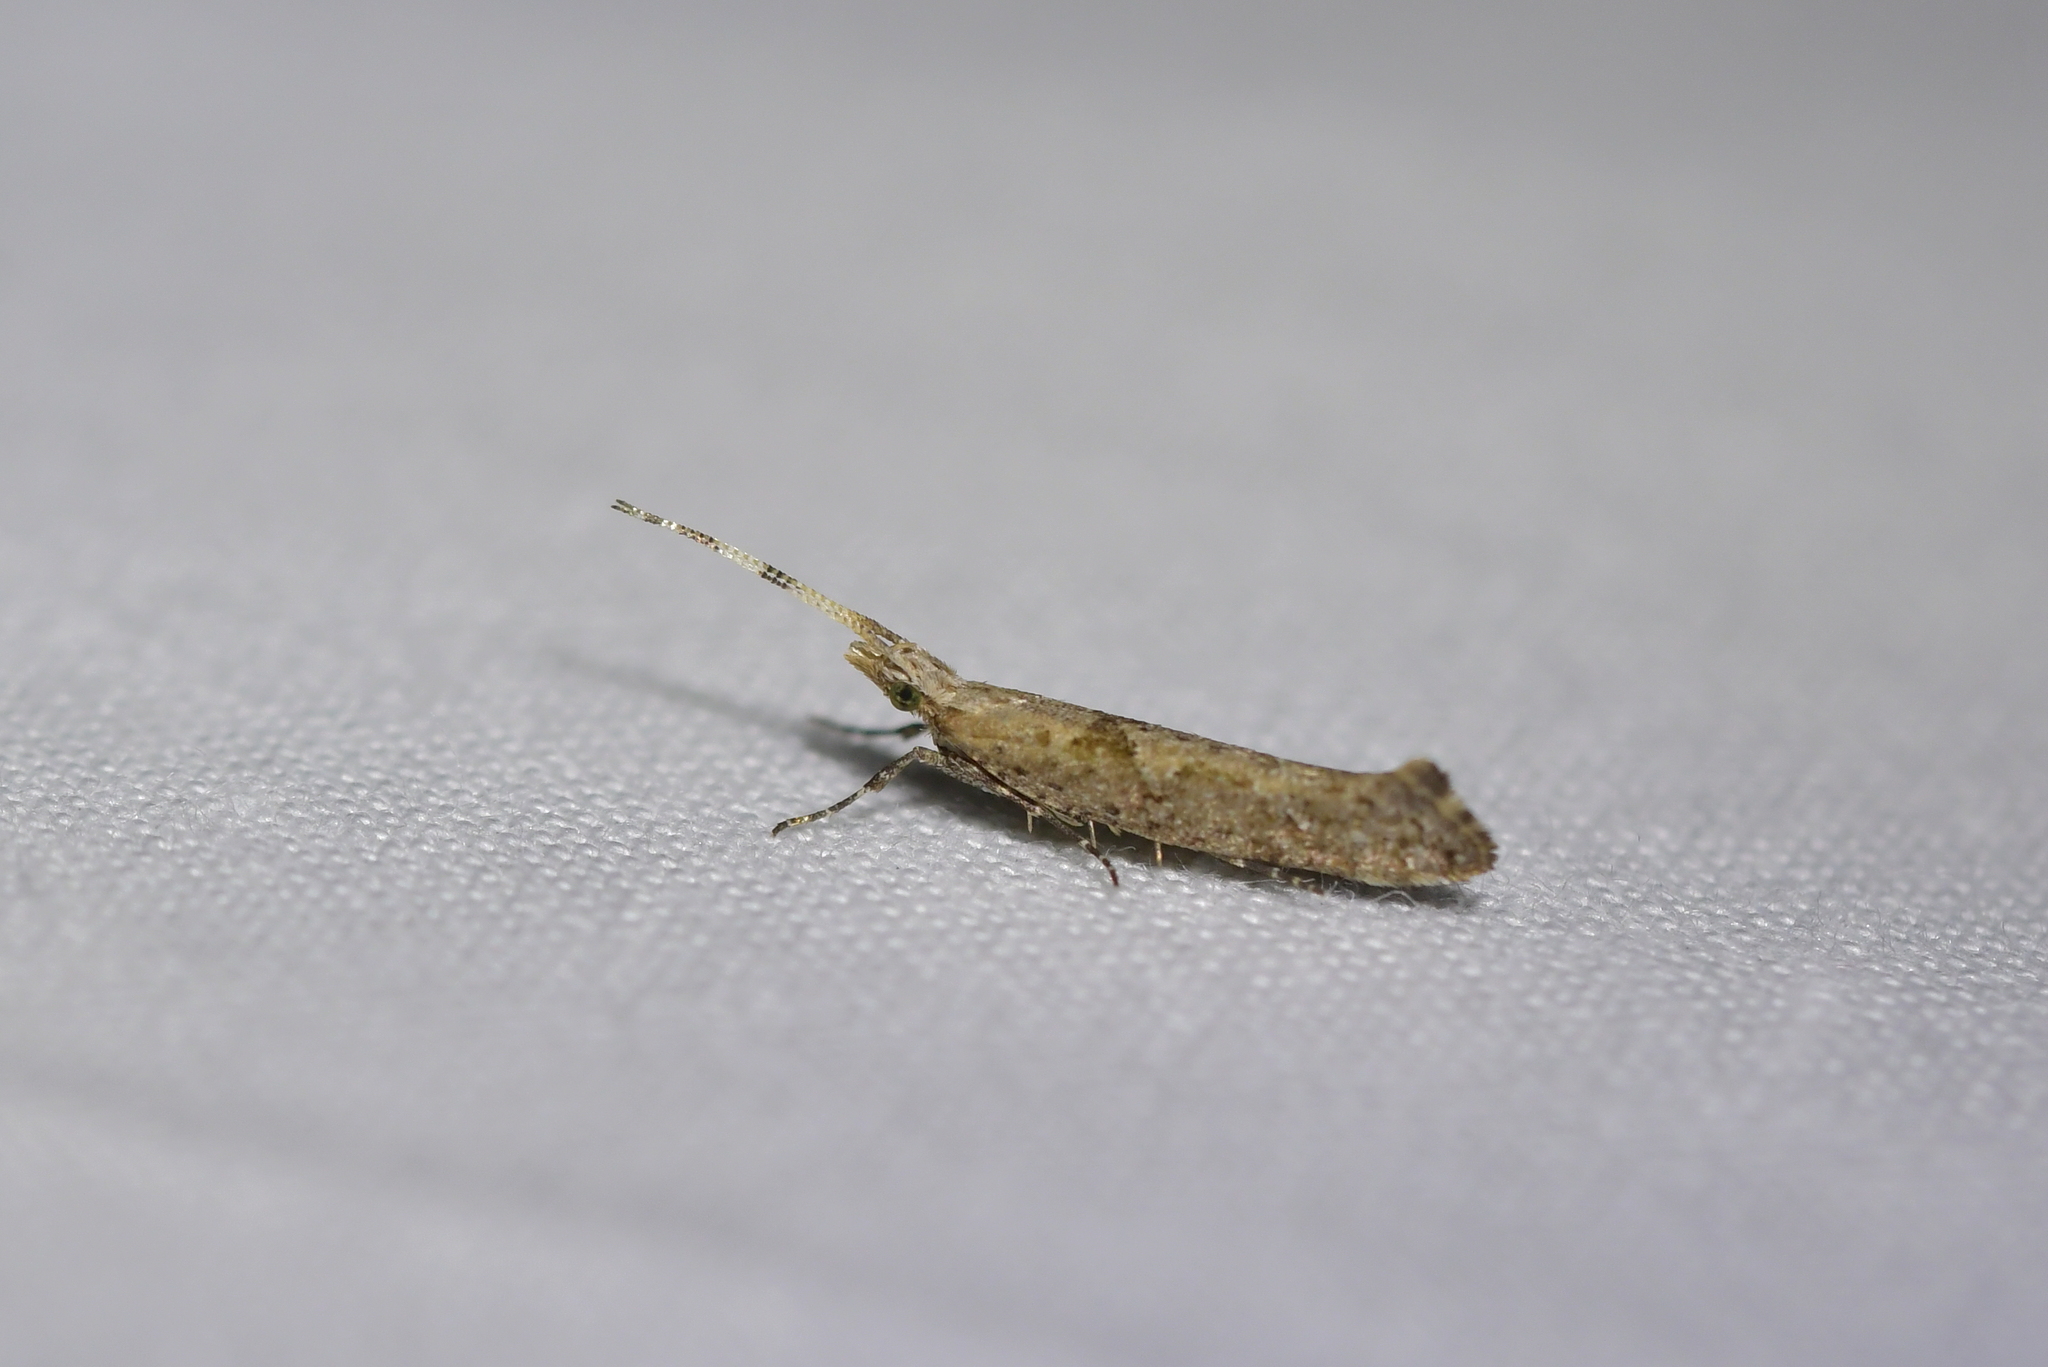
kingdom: Animalia
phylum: Arthropoda
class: Insecta
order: Lepidoptera
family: Plutellidae
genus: Leuroperna
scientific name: Leuroperna sera
